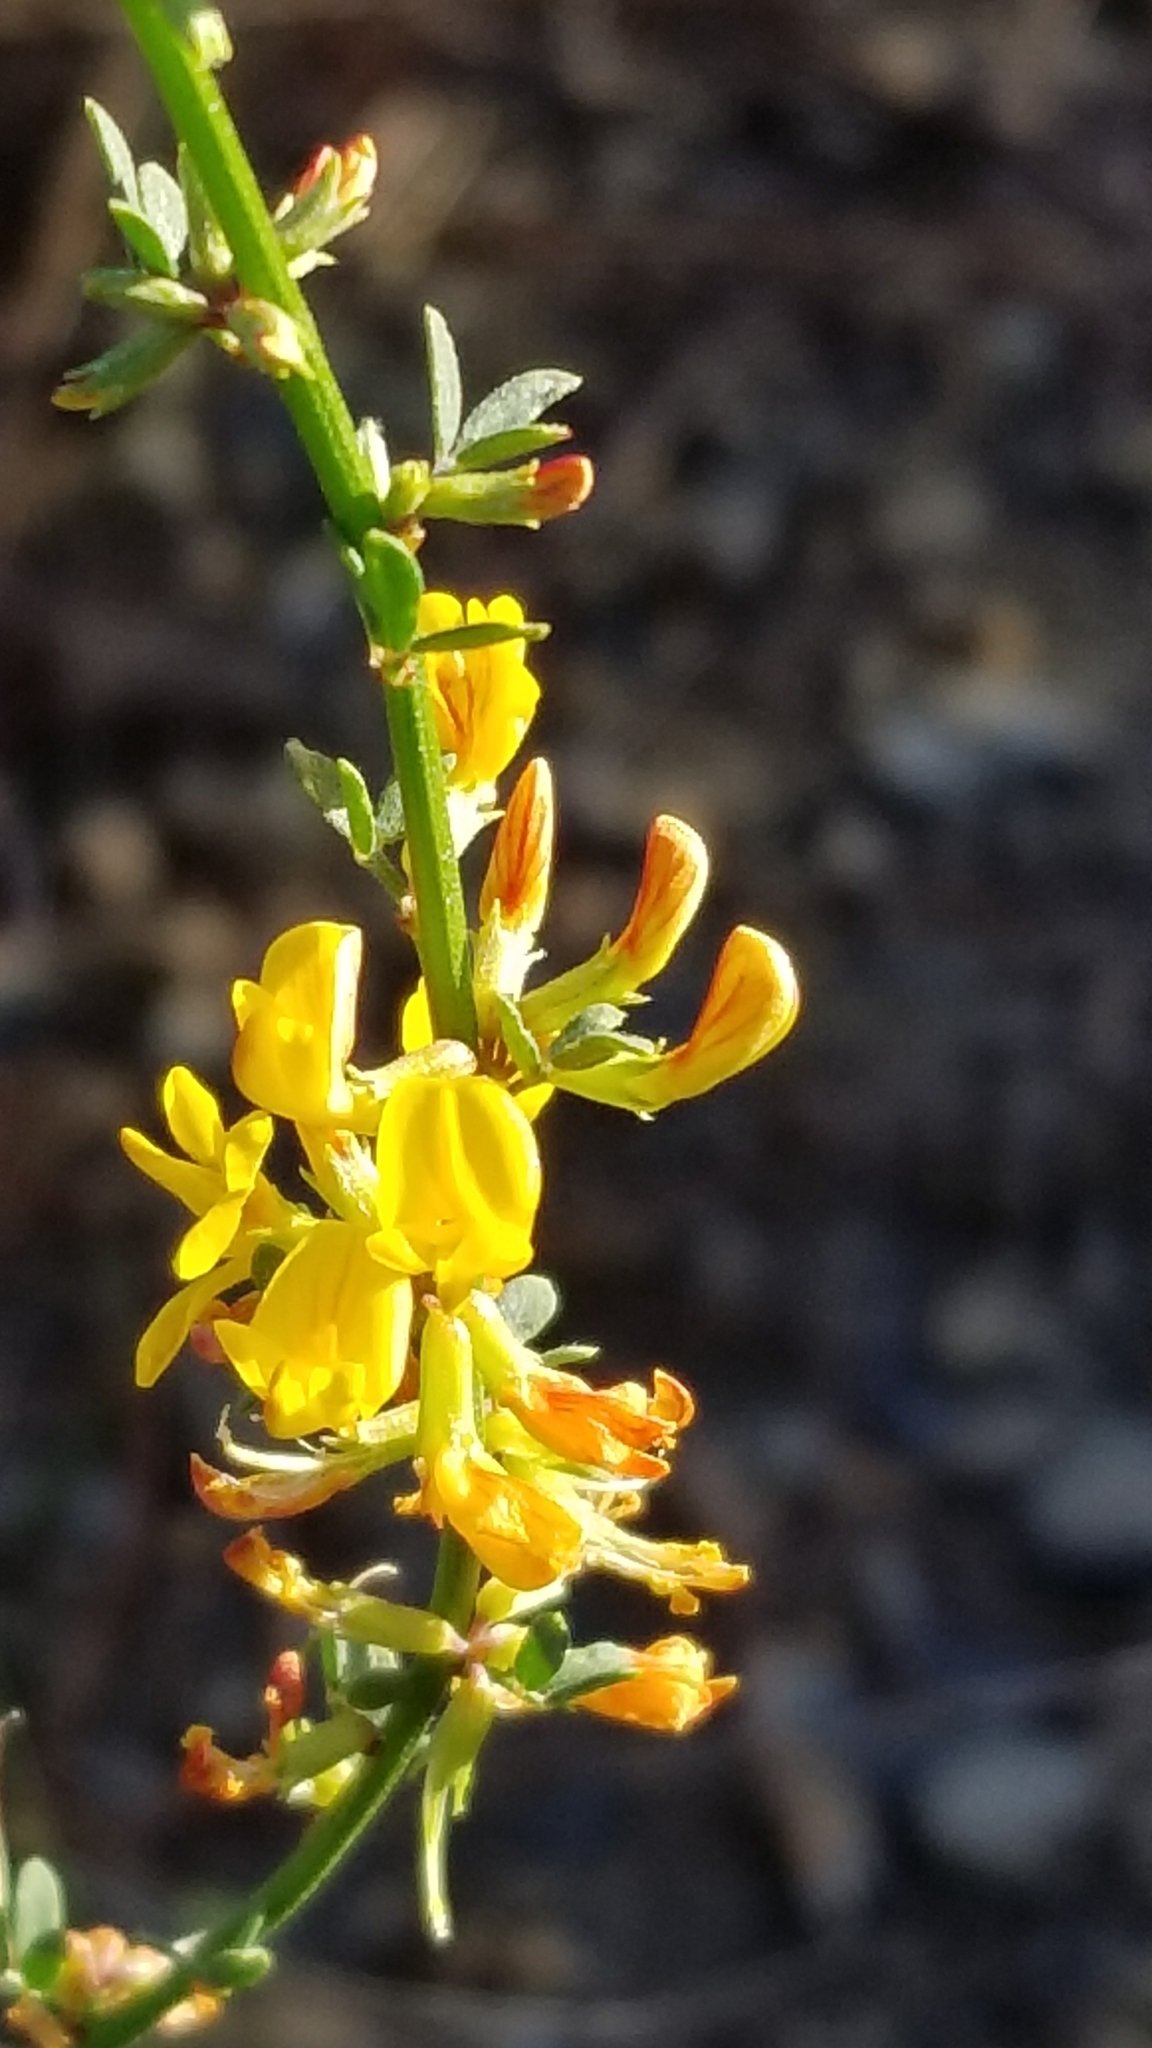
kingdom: Plantae
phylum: Tracheophyta
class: Magnoliopsida
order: Fabales
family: Fabaceae
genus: Acmispon
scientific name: Acmispon glaber
